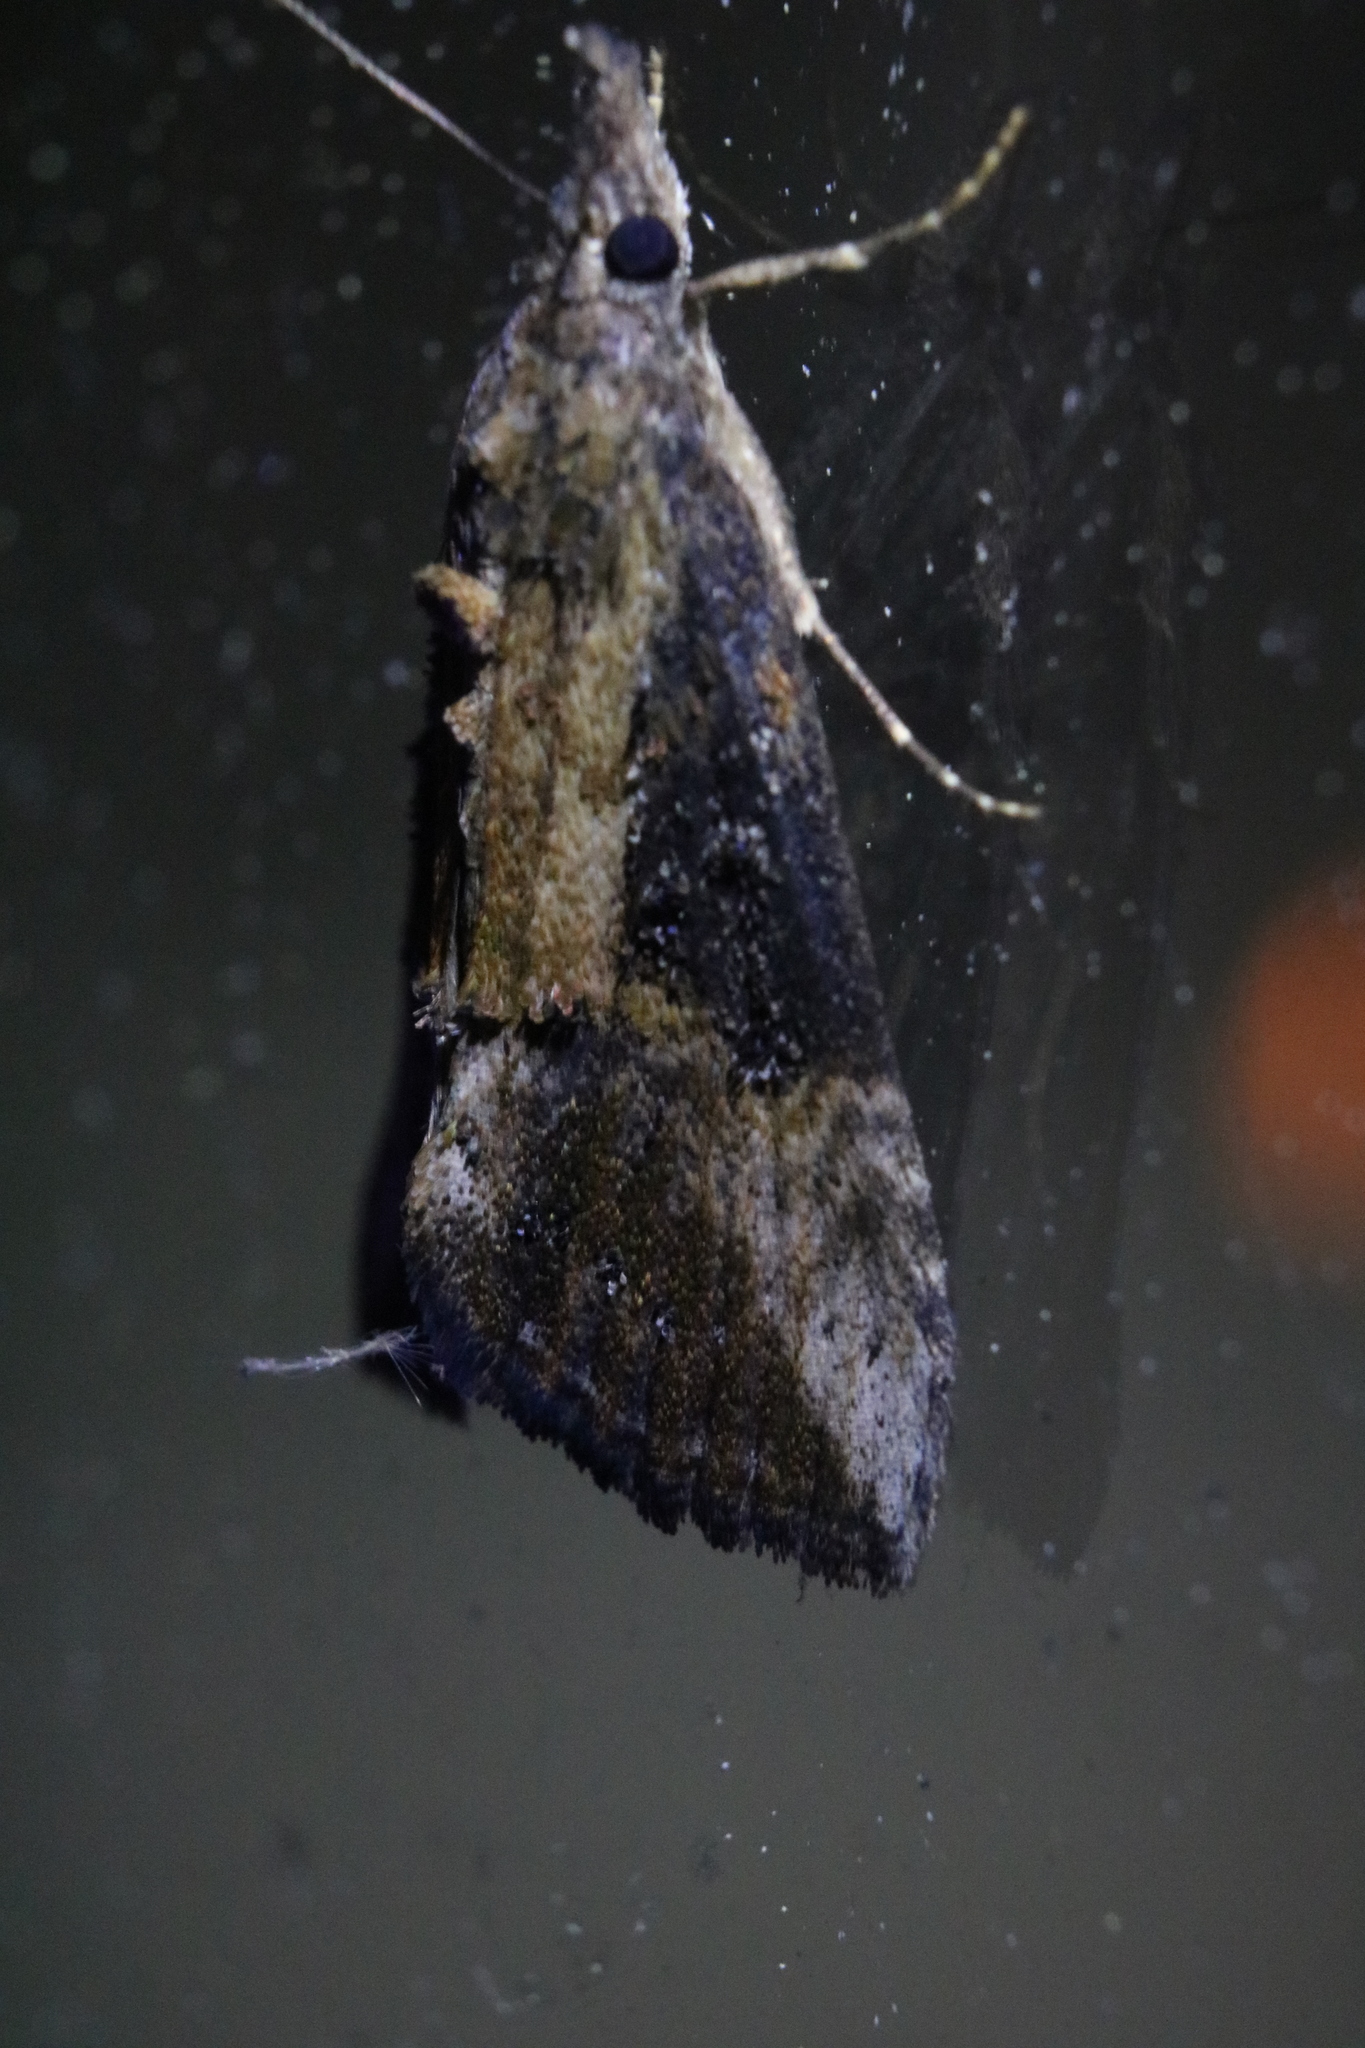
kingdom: Animalia
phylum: Arthropoda
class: Insecta
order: Lepidoptera
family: Erebidae
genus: Hypena
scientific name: Hypena scabra
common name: Green cloverworm
